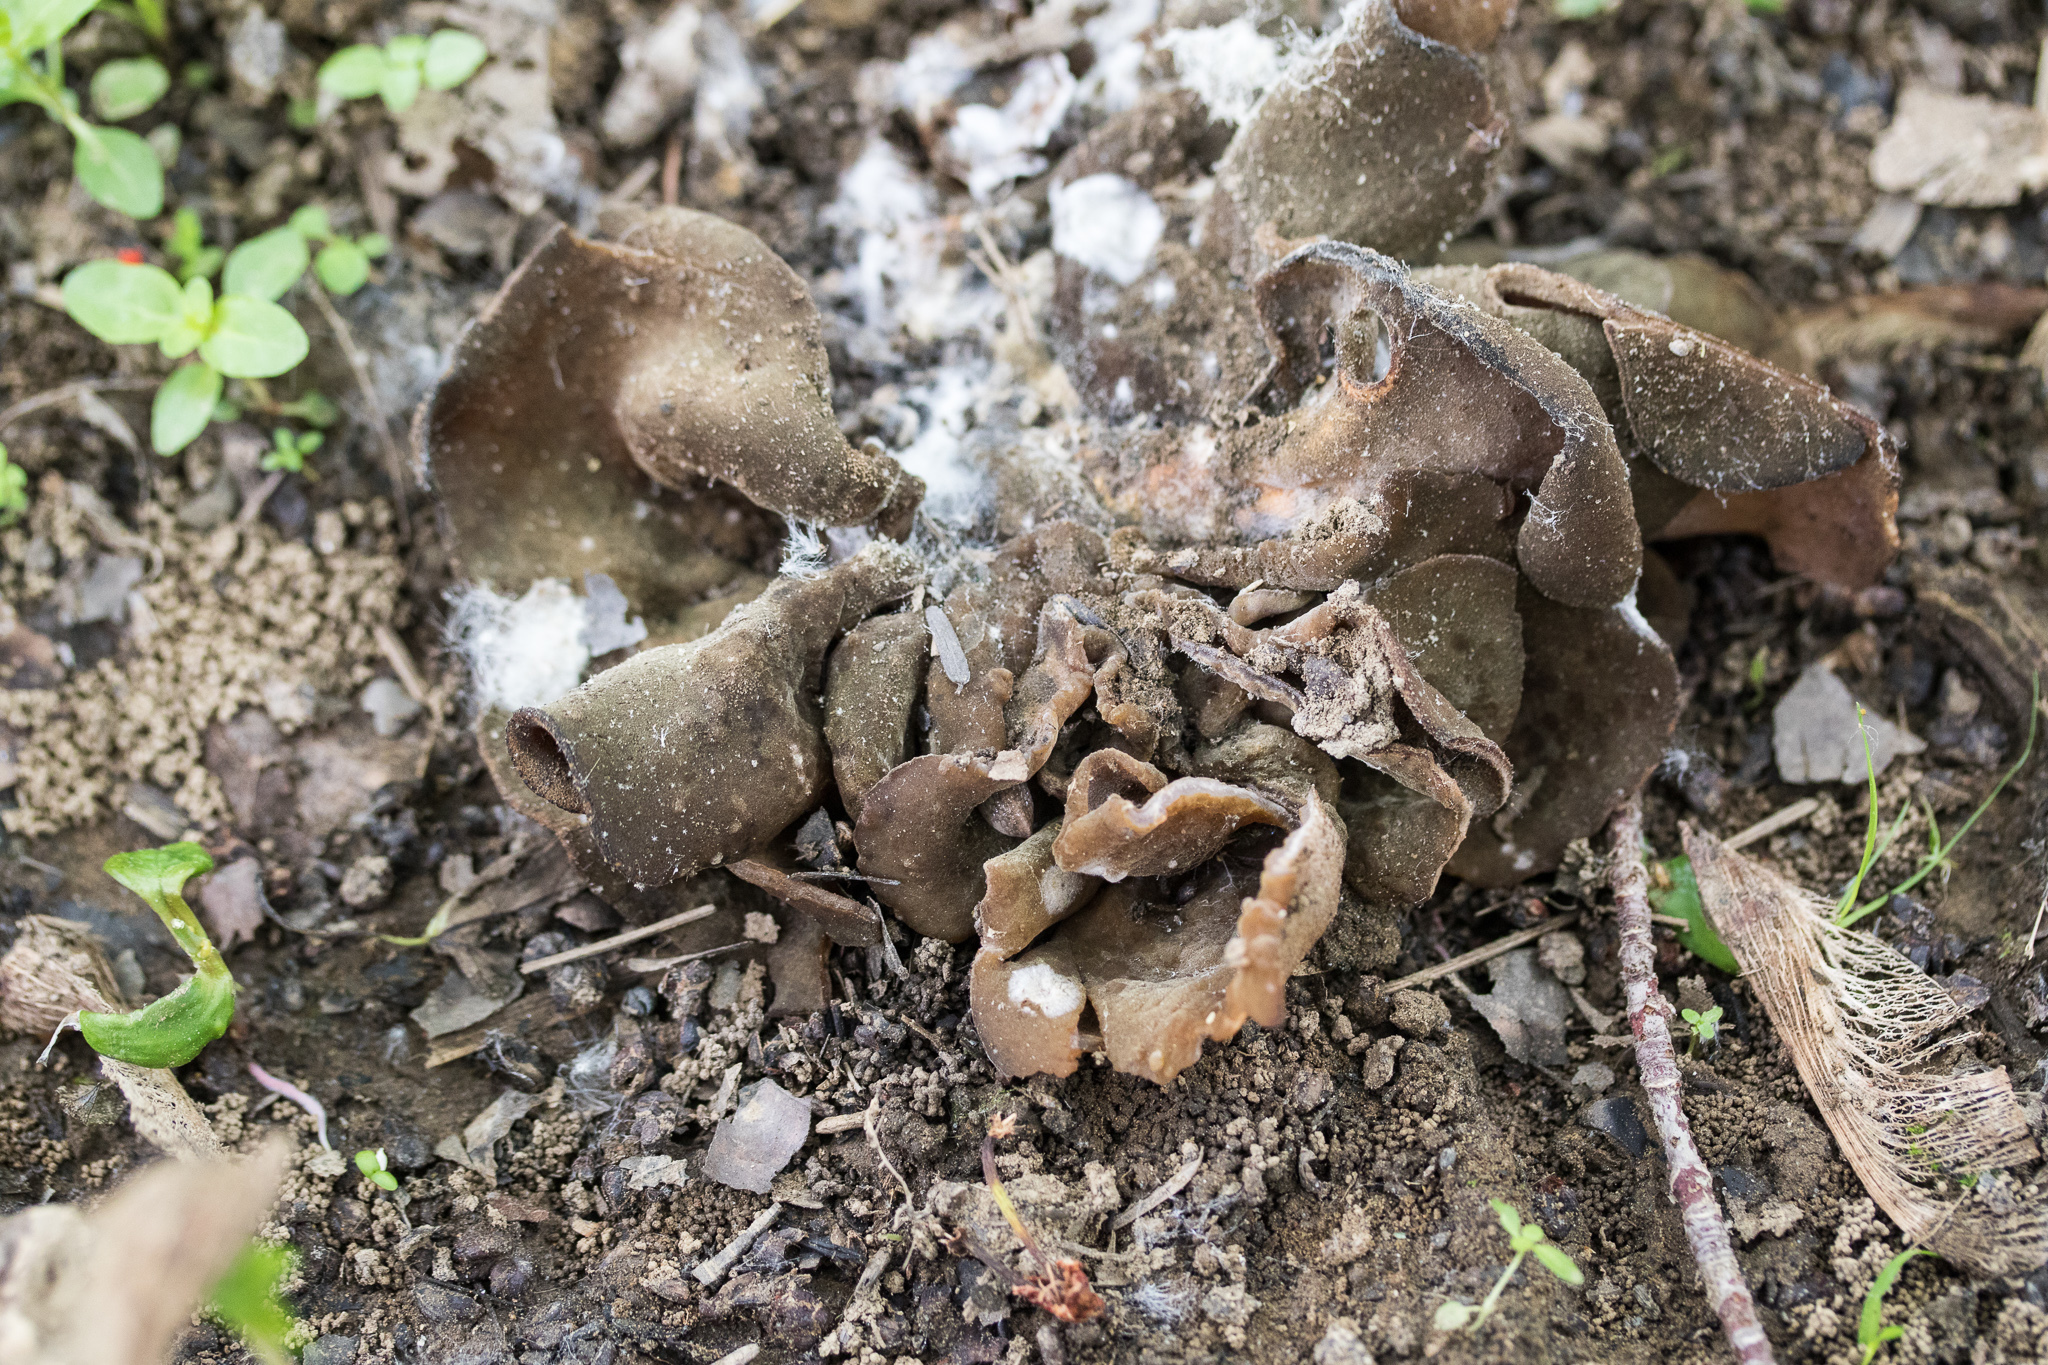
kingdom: Fungi
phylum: Ascomycota
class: Pezizomycetes
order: Pezizales
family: Pezizaceae
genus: Phylloscypha
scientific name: Phylloscypha phyllogena
